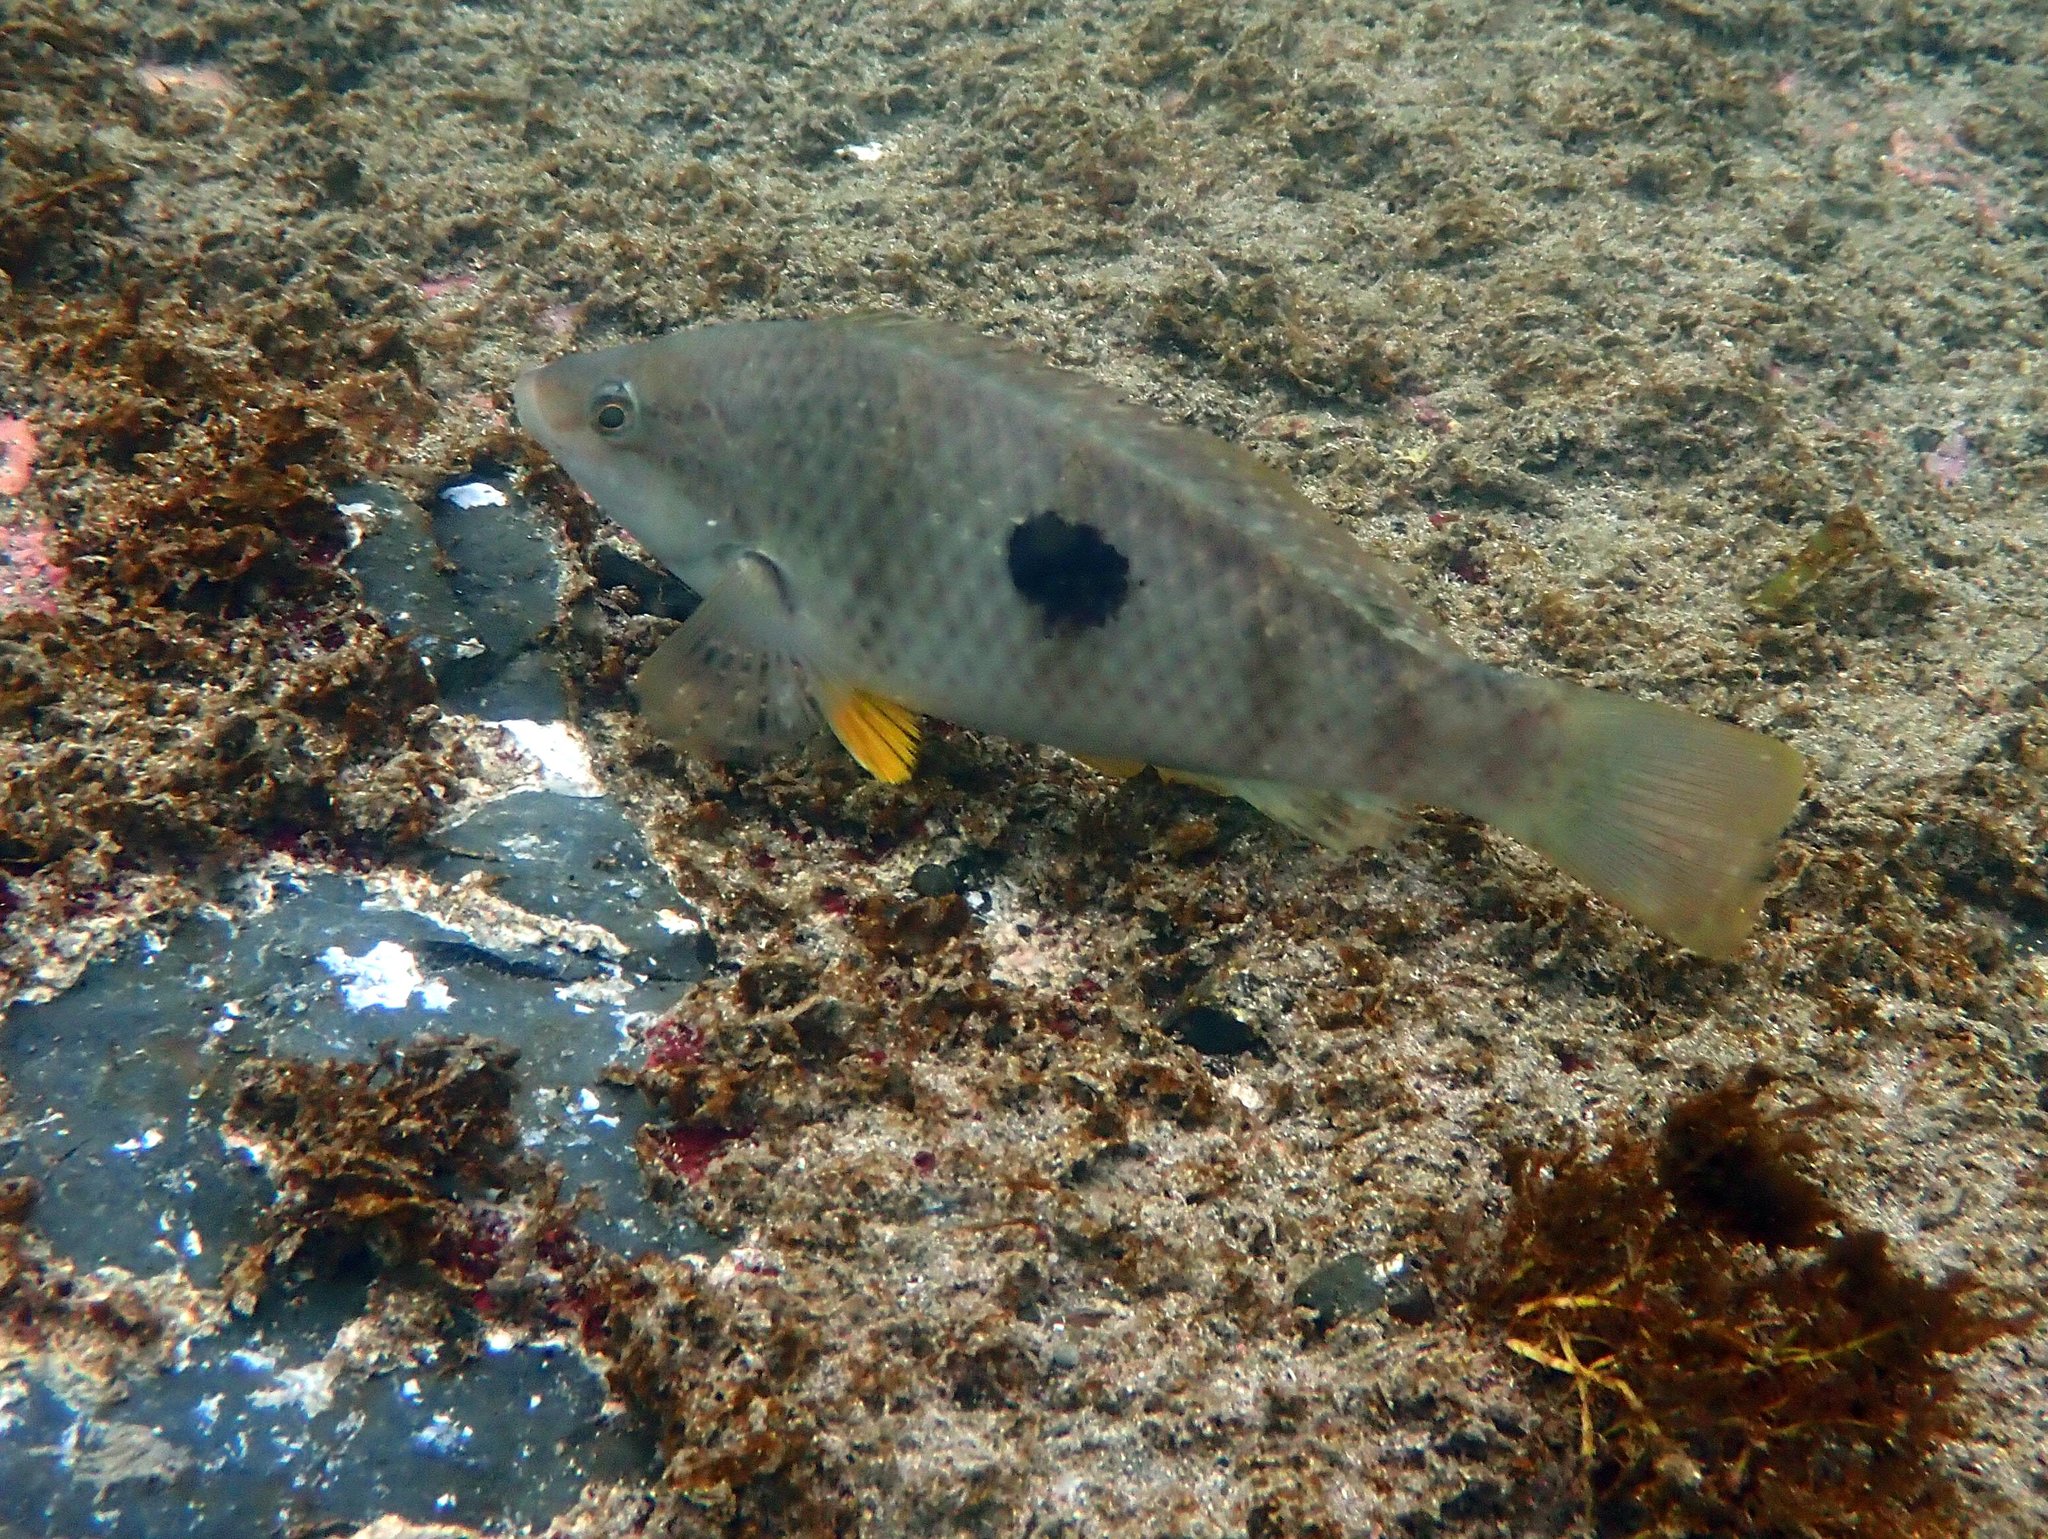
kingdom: Animalia
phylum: Chordata
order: Perciformes
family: Labridae
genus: Notolabrus
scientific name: Notolabrus celidotus
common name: Spotty
